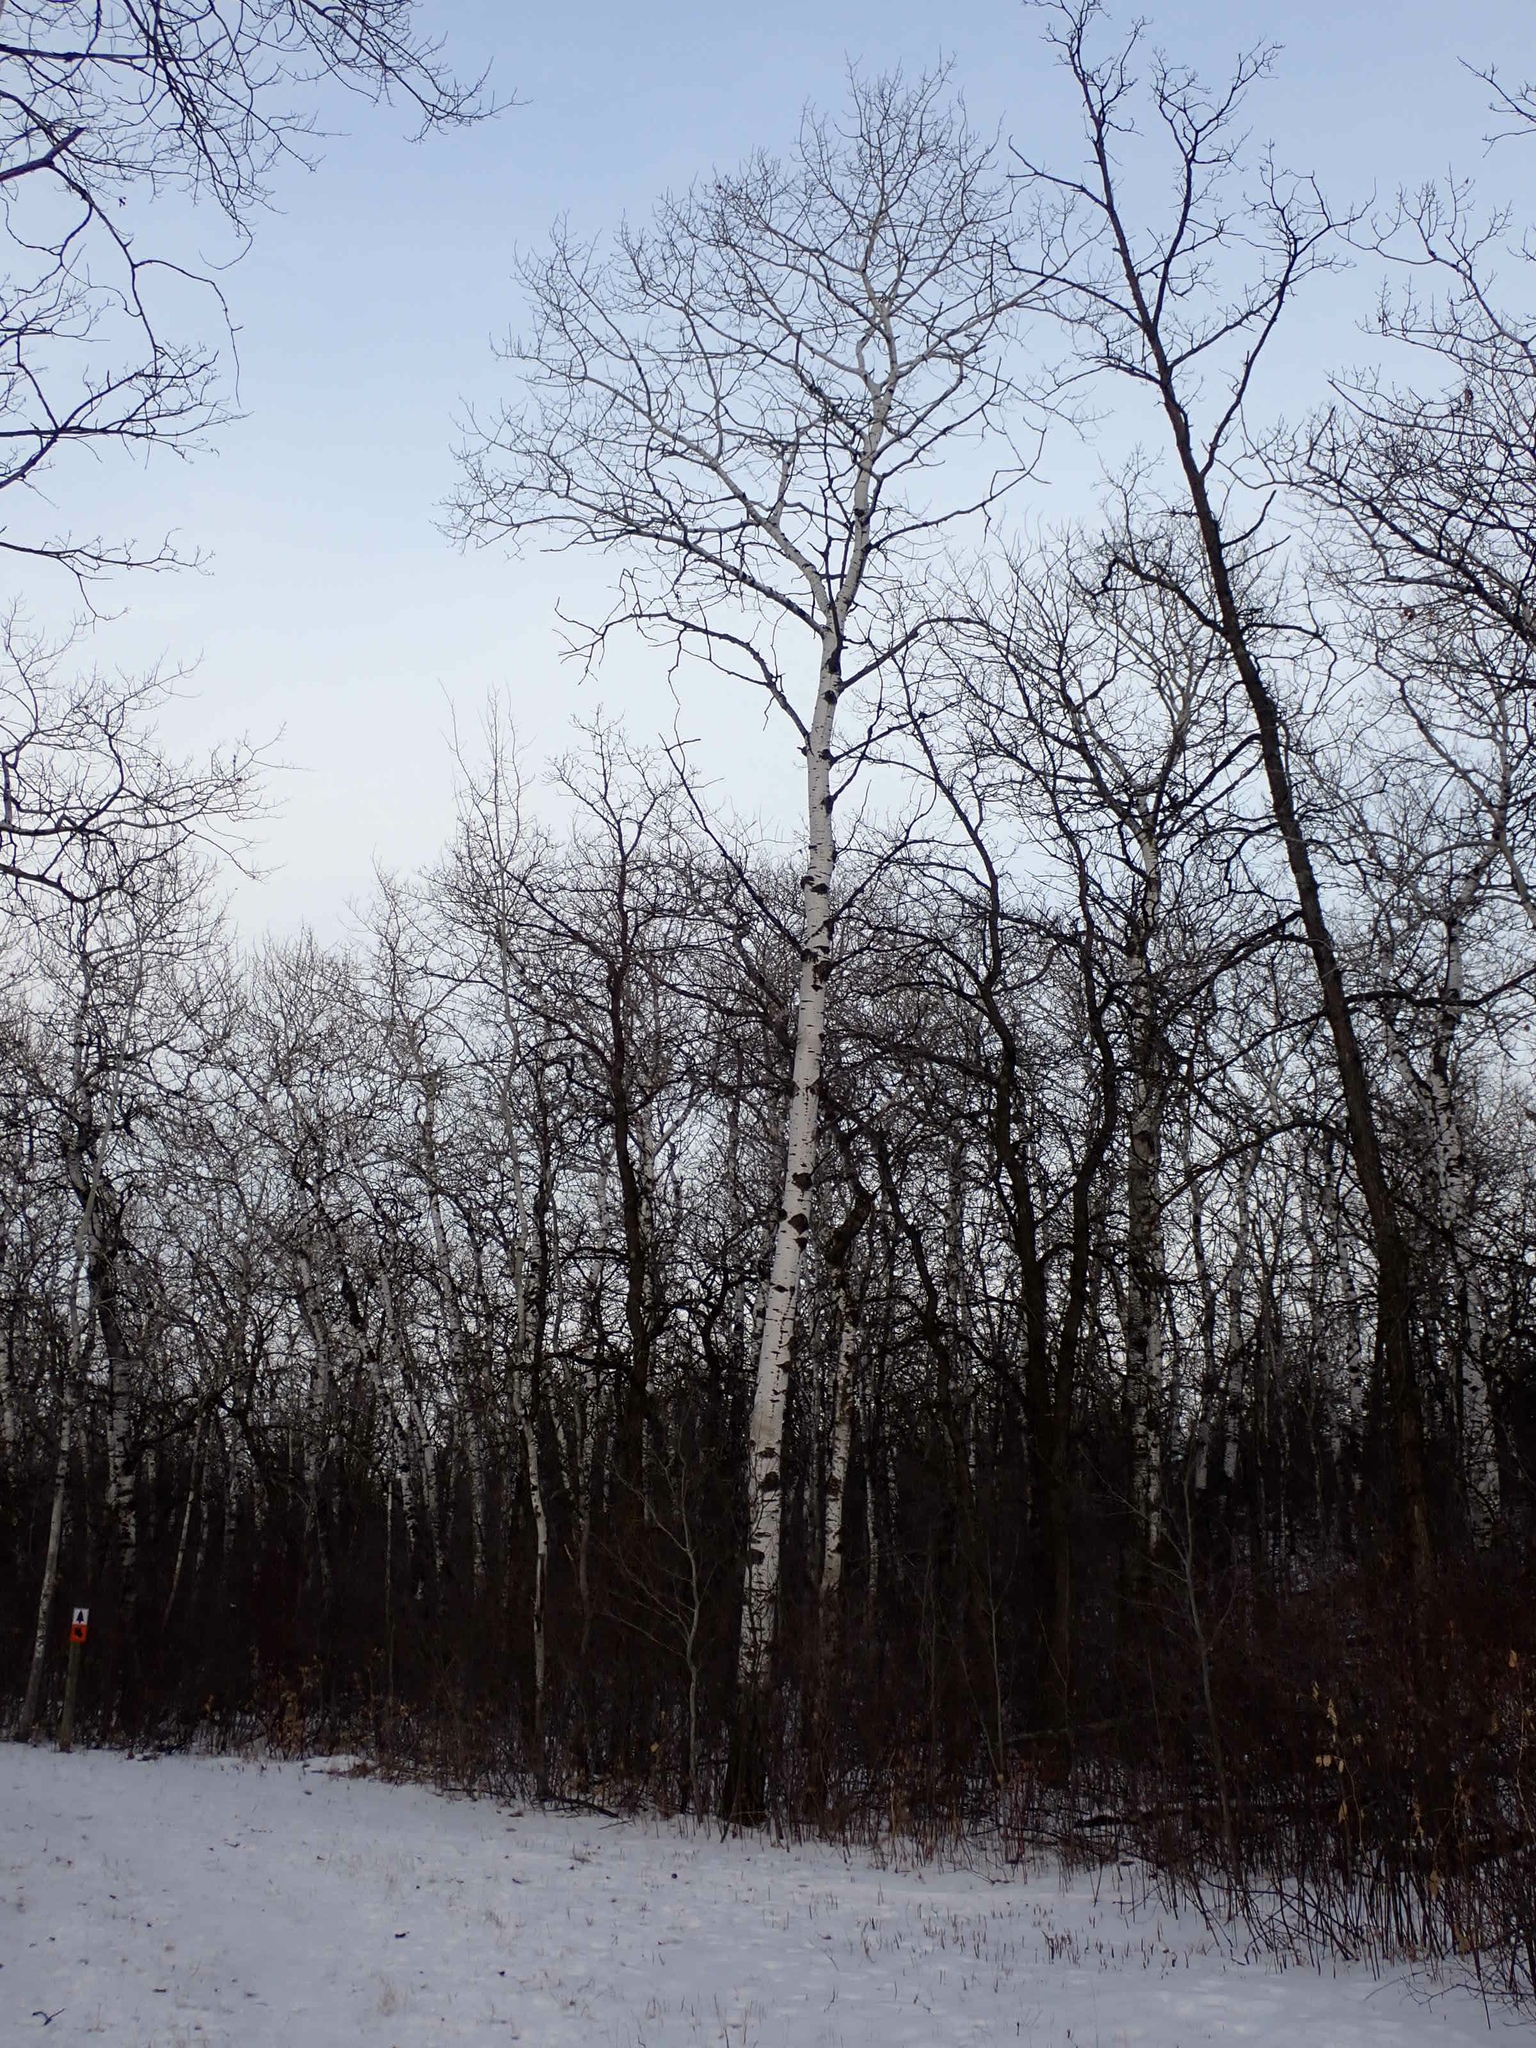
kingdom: Plantae
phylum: Tracheophyta
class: Magnoliopsida
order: Malpighiales
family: Salicaceae
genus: Populus
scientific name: Populus tremuloides
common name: Quaking aspen
